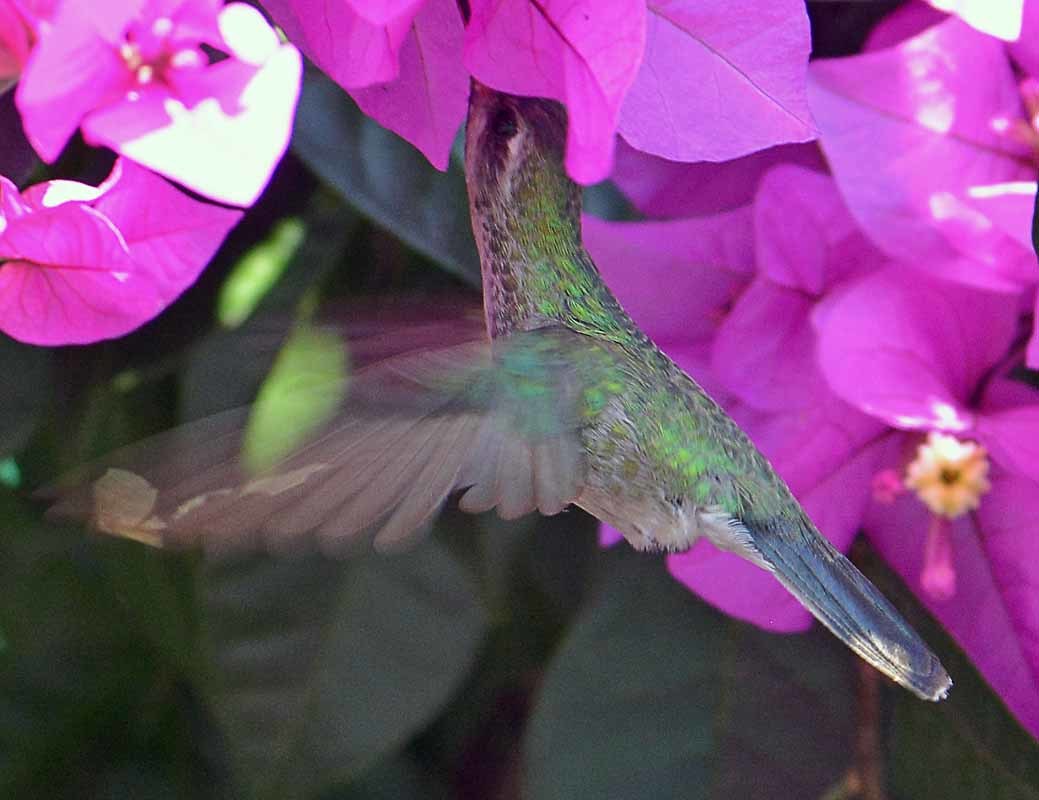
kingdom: Animalia
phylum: Chordata
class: Aves
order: Apodiformes
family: Trochilidae
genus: Cynanthus
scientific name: Cynanthus latirostris
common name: Broad-billed hummingbird
